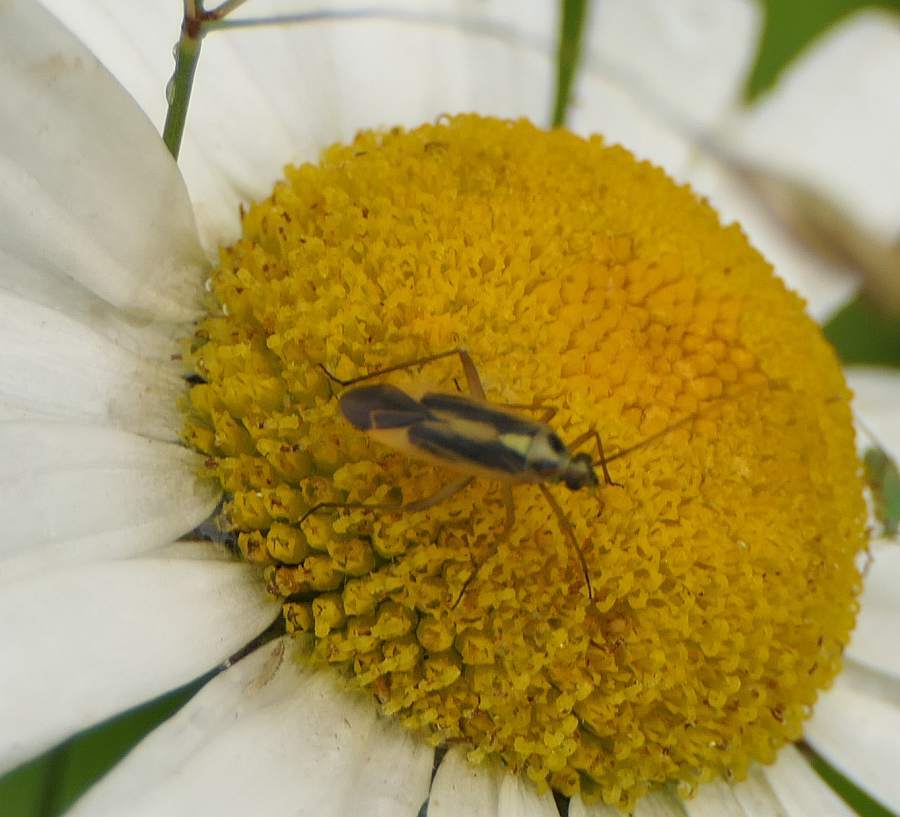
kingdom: Animalia
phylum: Arthropoda
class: Insecta
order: Hemiptera
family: Miridae
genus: Stenotus
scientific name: Stenotus binotatus
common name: Plant bug
